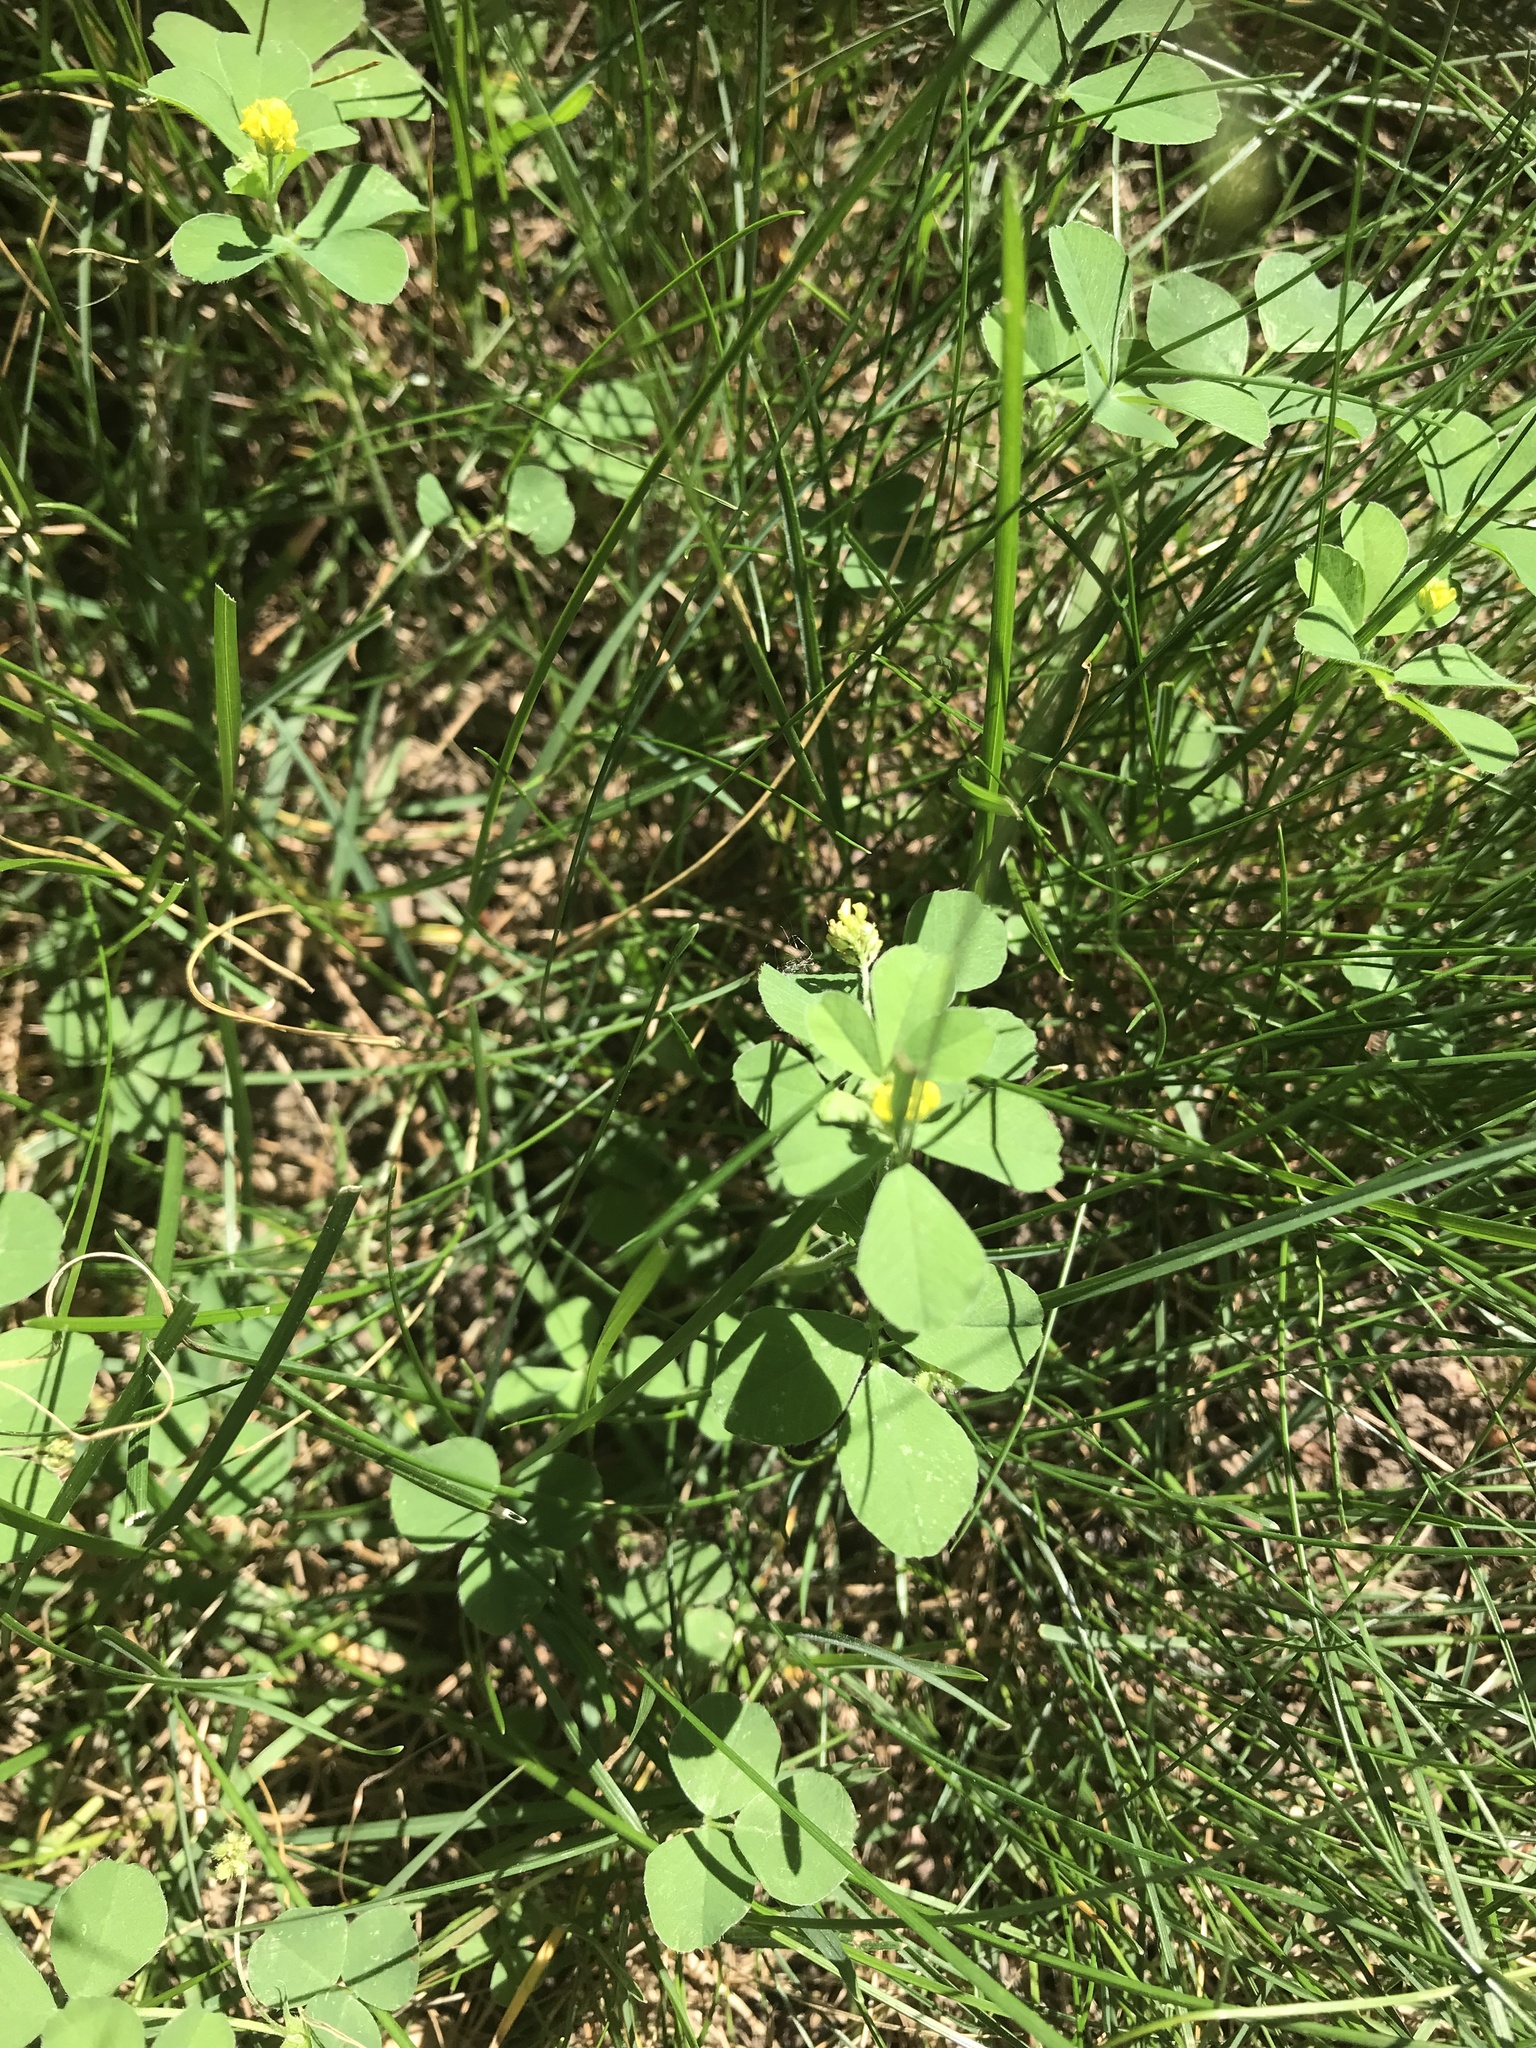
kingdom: Plantae
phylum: Tracheophyta
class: Magnoliopsida
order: Fabales
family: Fabaceae
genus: Medicago
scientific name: Medicago lupulina
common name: Black medick
